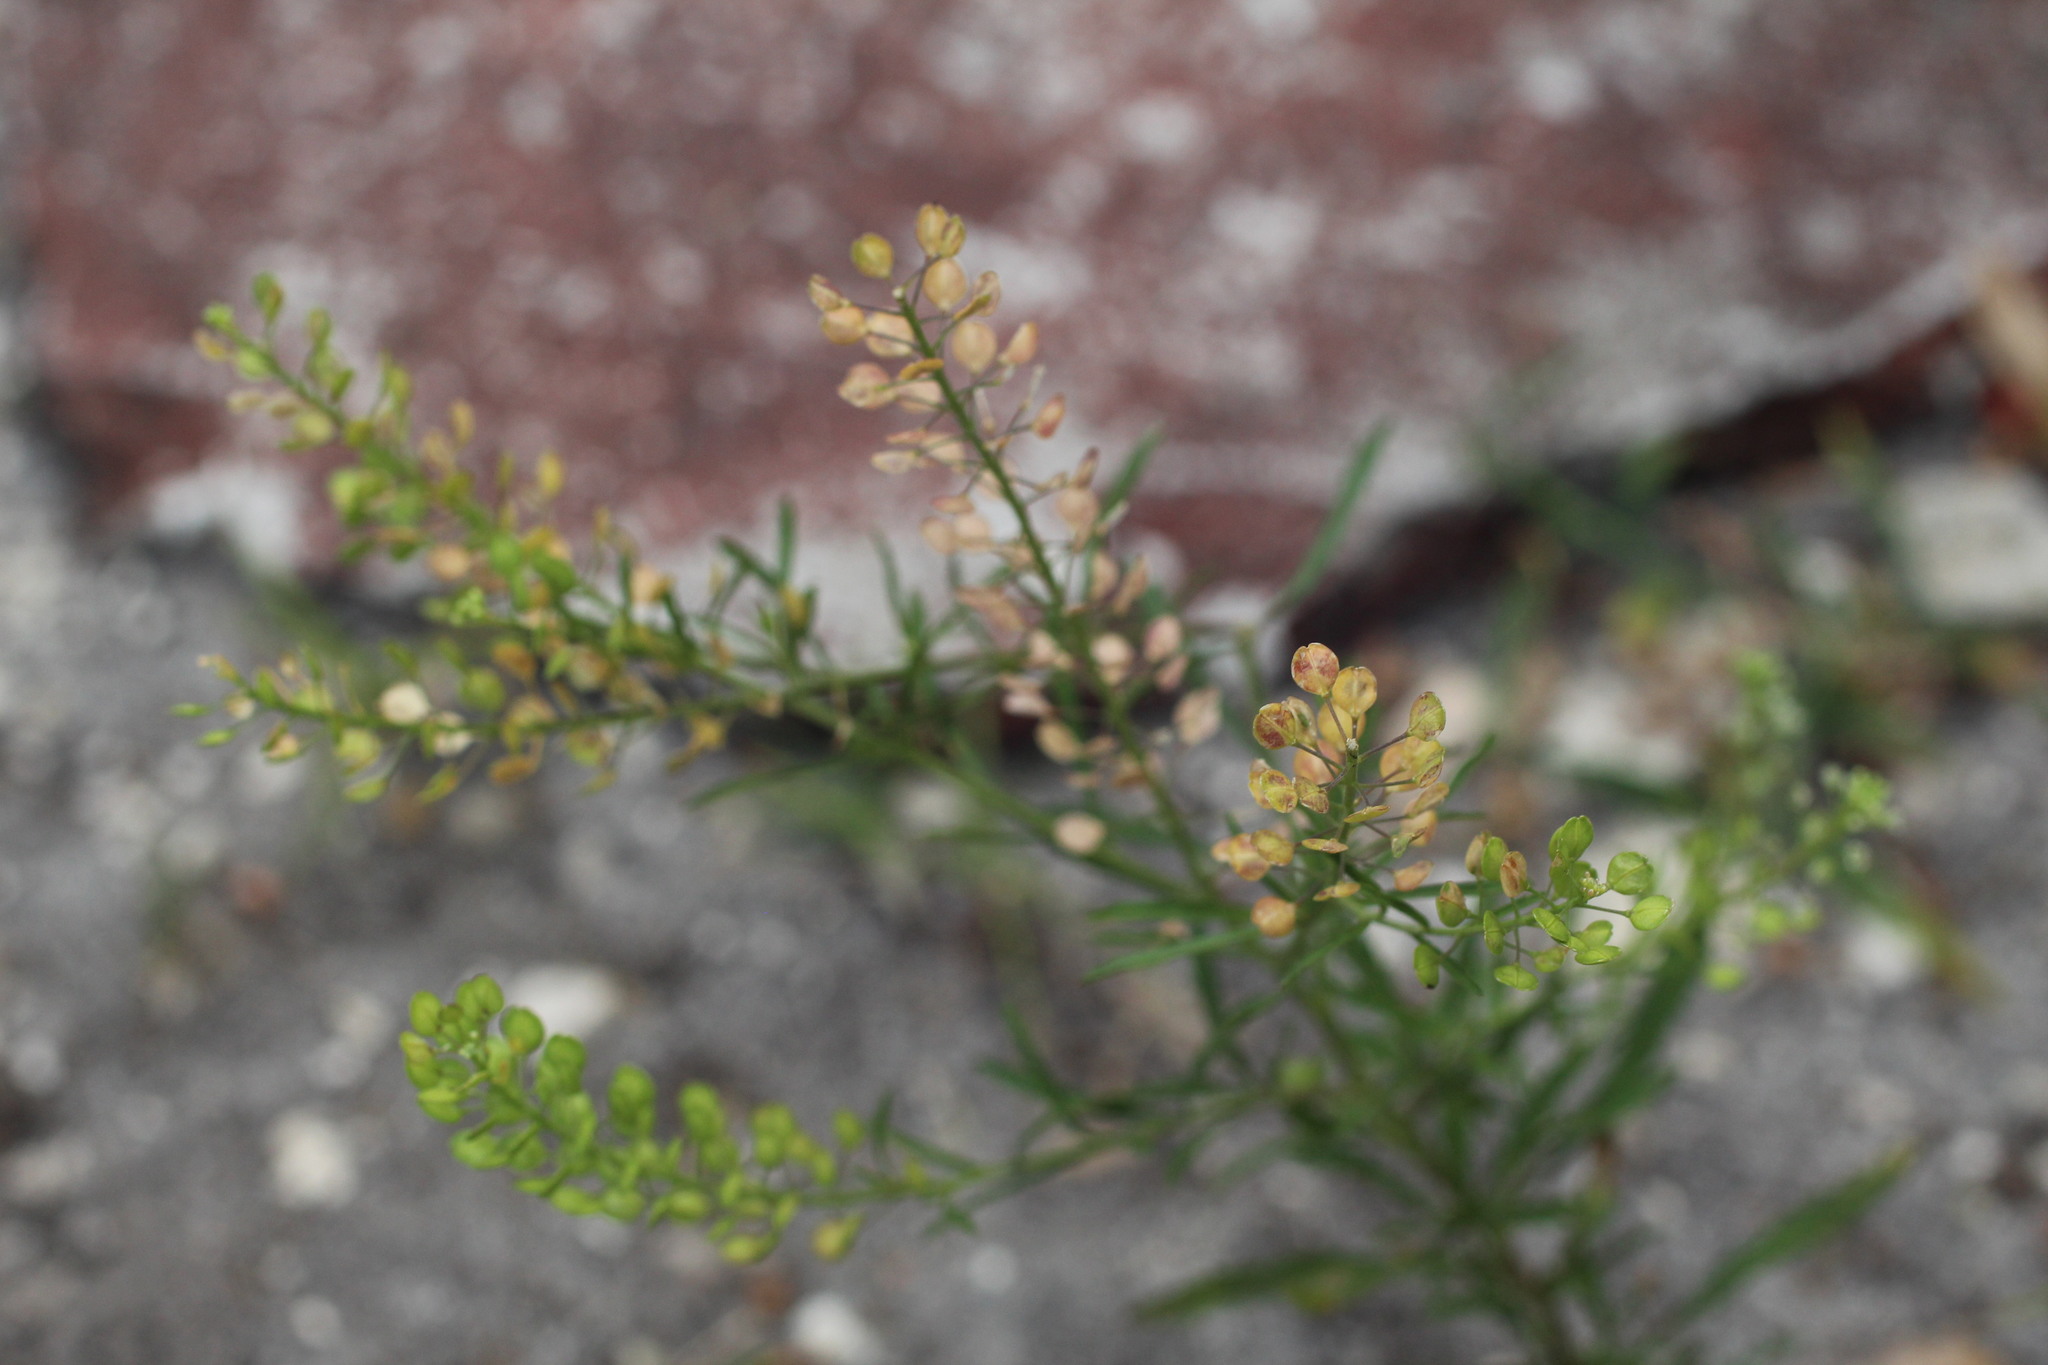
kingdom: Plantae
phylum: Tracheophyta
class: Magnoliopsida
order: Brassicales
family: Brassicaceae
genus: Lepidium
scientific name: Lepidium virginicum
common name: Least pepperwort
